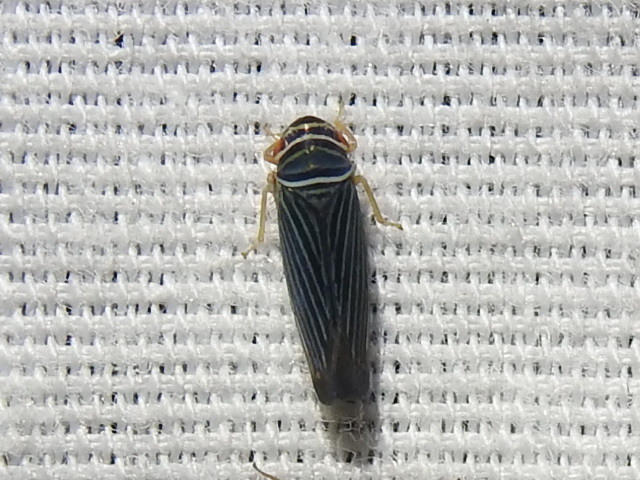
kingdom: Animalia
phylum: Arthropoda
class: Insecta
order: Hemiptera
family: Cicadellidae
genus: Tylozygus
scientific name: Tylozygus bifidus
